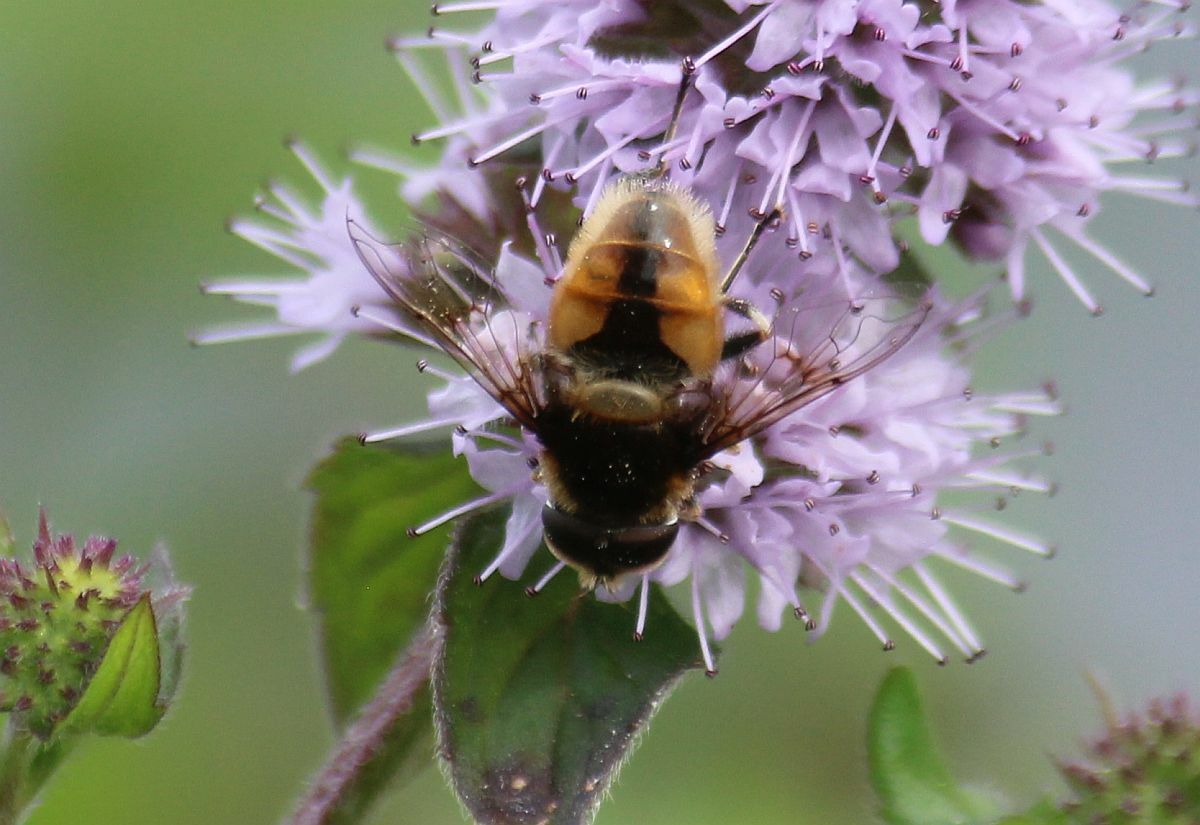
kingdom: Animalia
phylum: Arthropoda
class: Insecta
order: Diptera
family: Syrphidae
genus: Eristalis
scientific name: Eristalis intricaria
